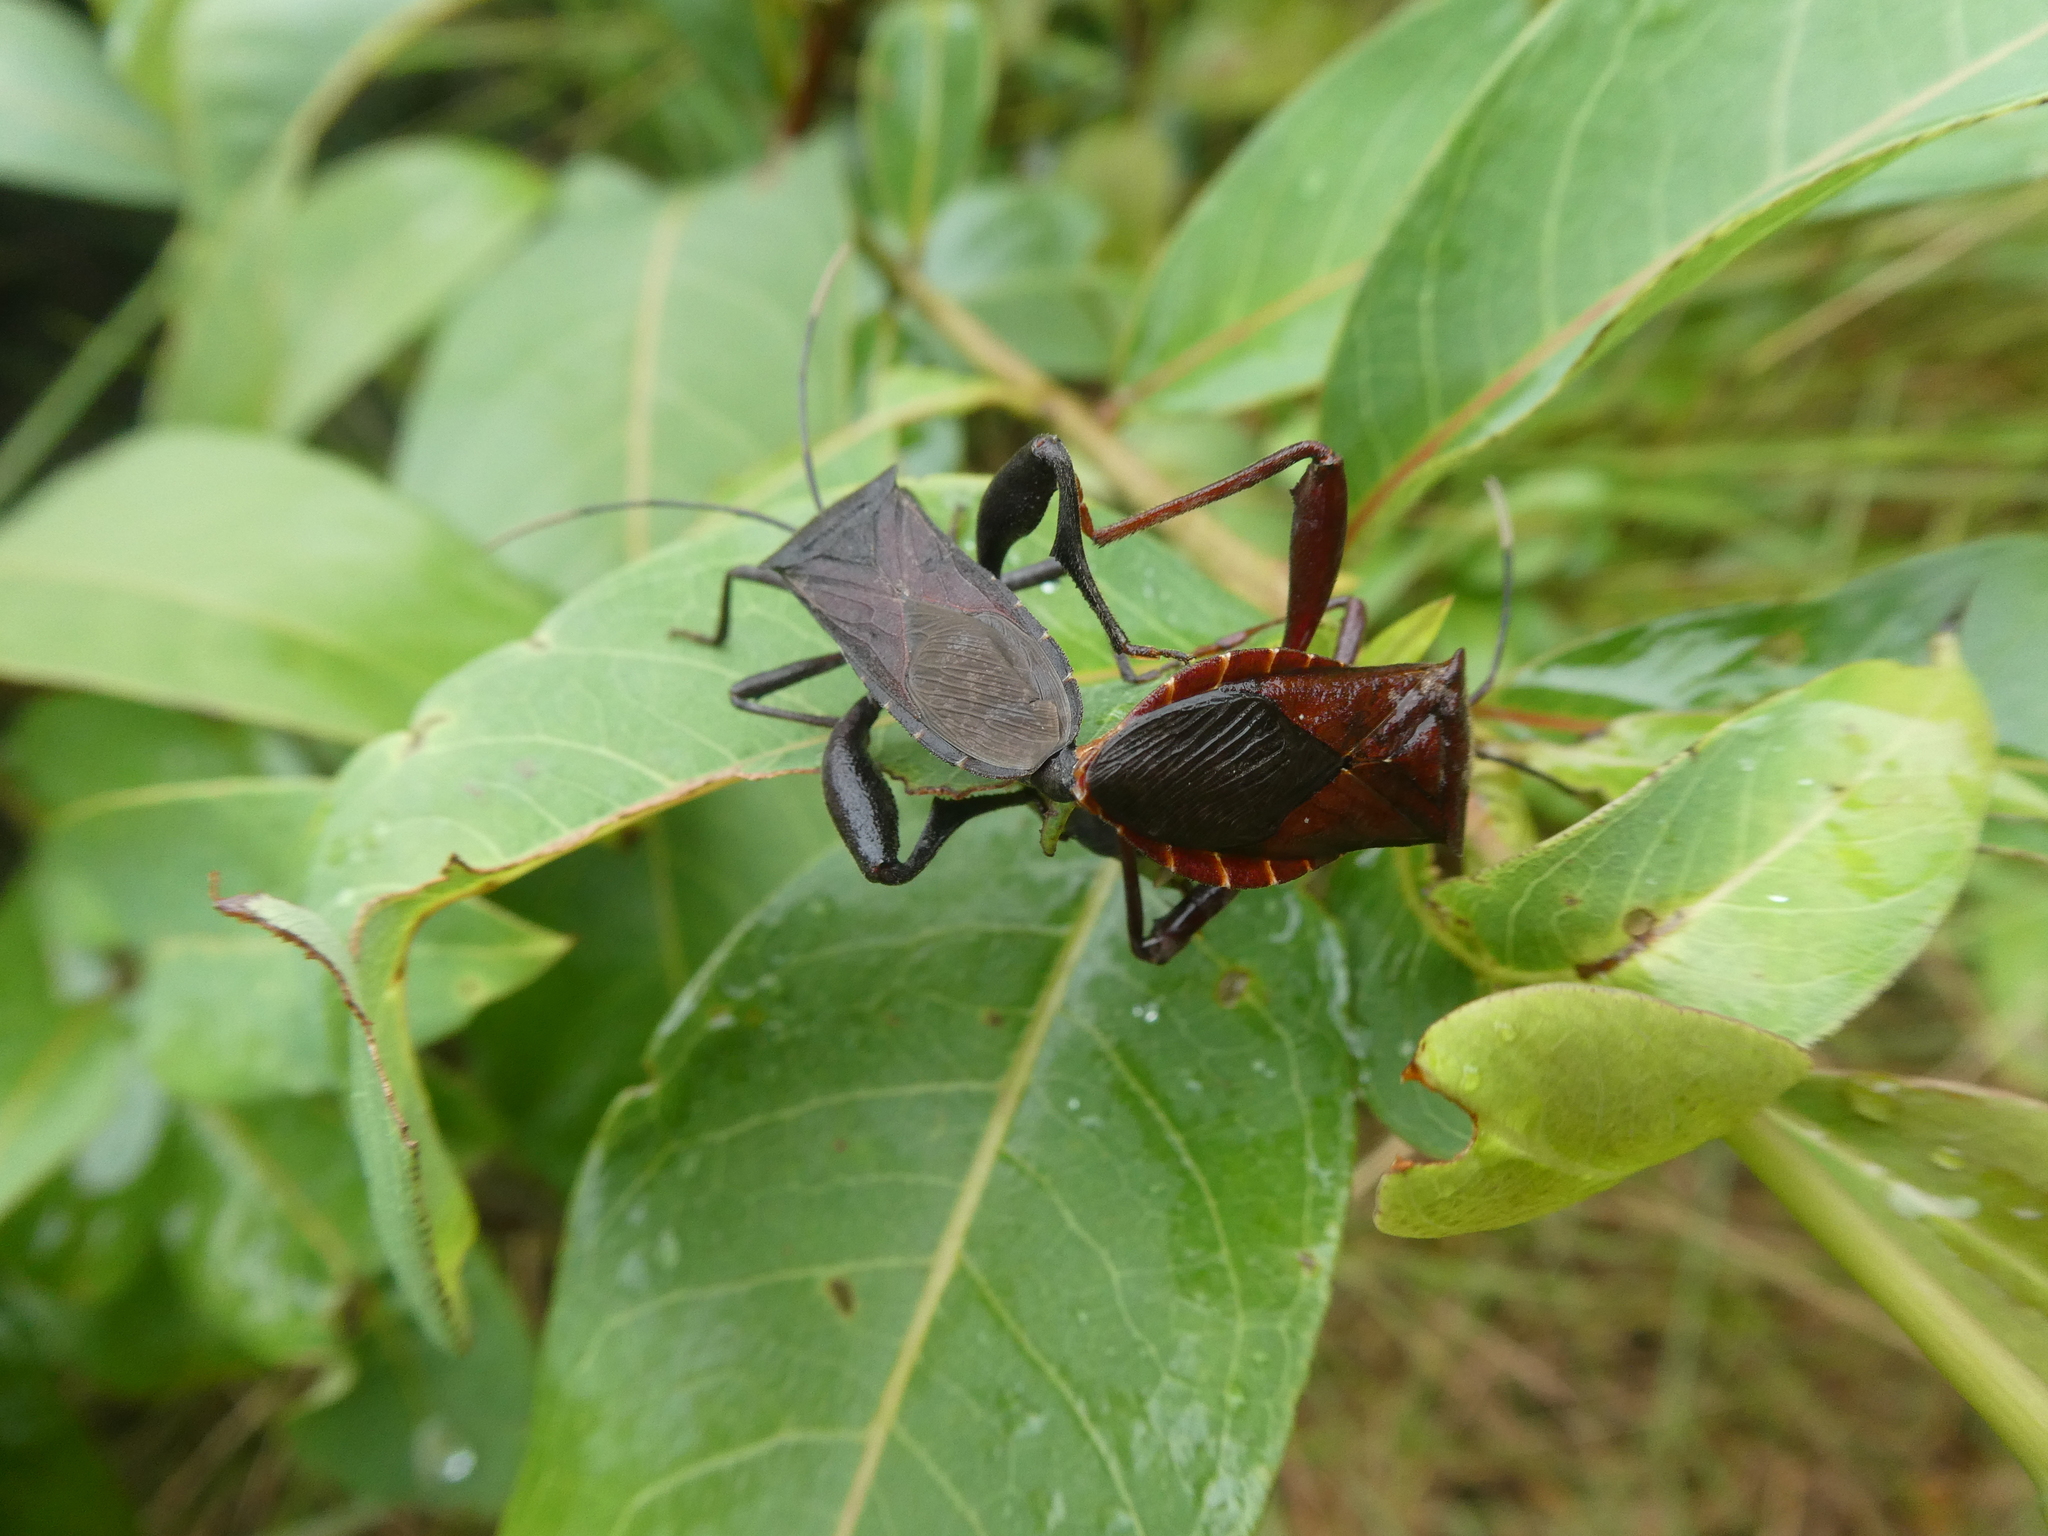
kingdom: Animalia
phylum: Arthropoda
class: Insecta
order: Hemiptera
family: Coreidae
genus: Mictis
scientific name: Mictis tenebrosa
